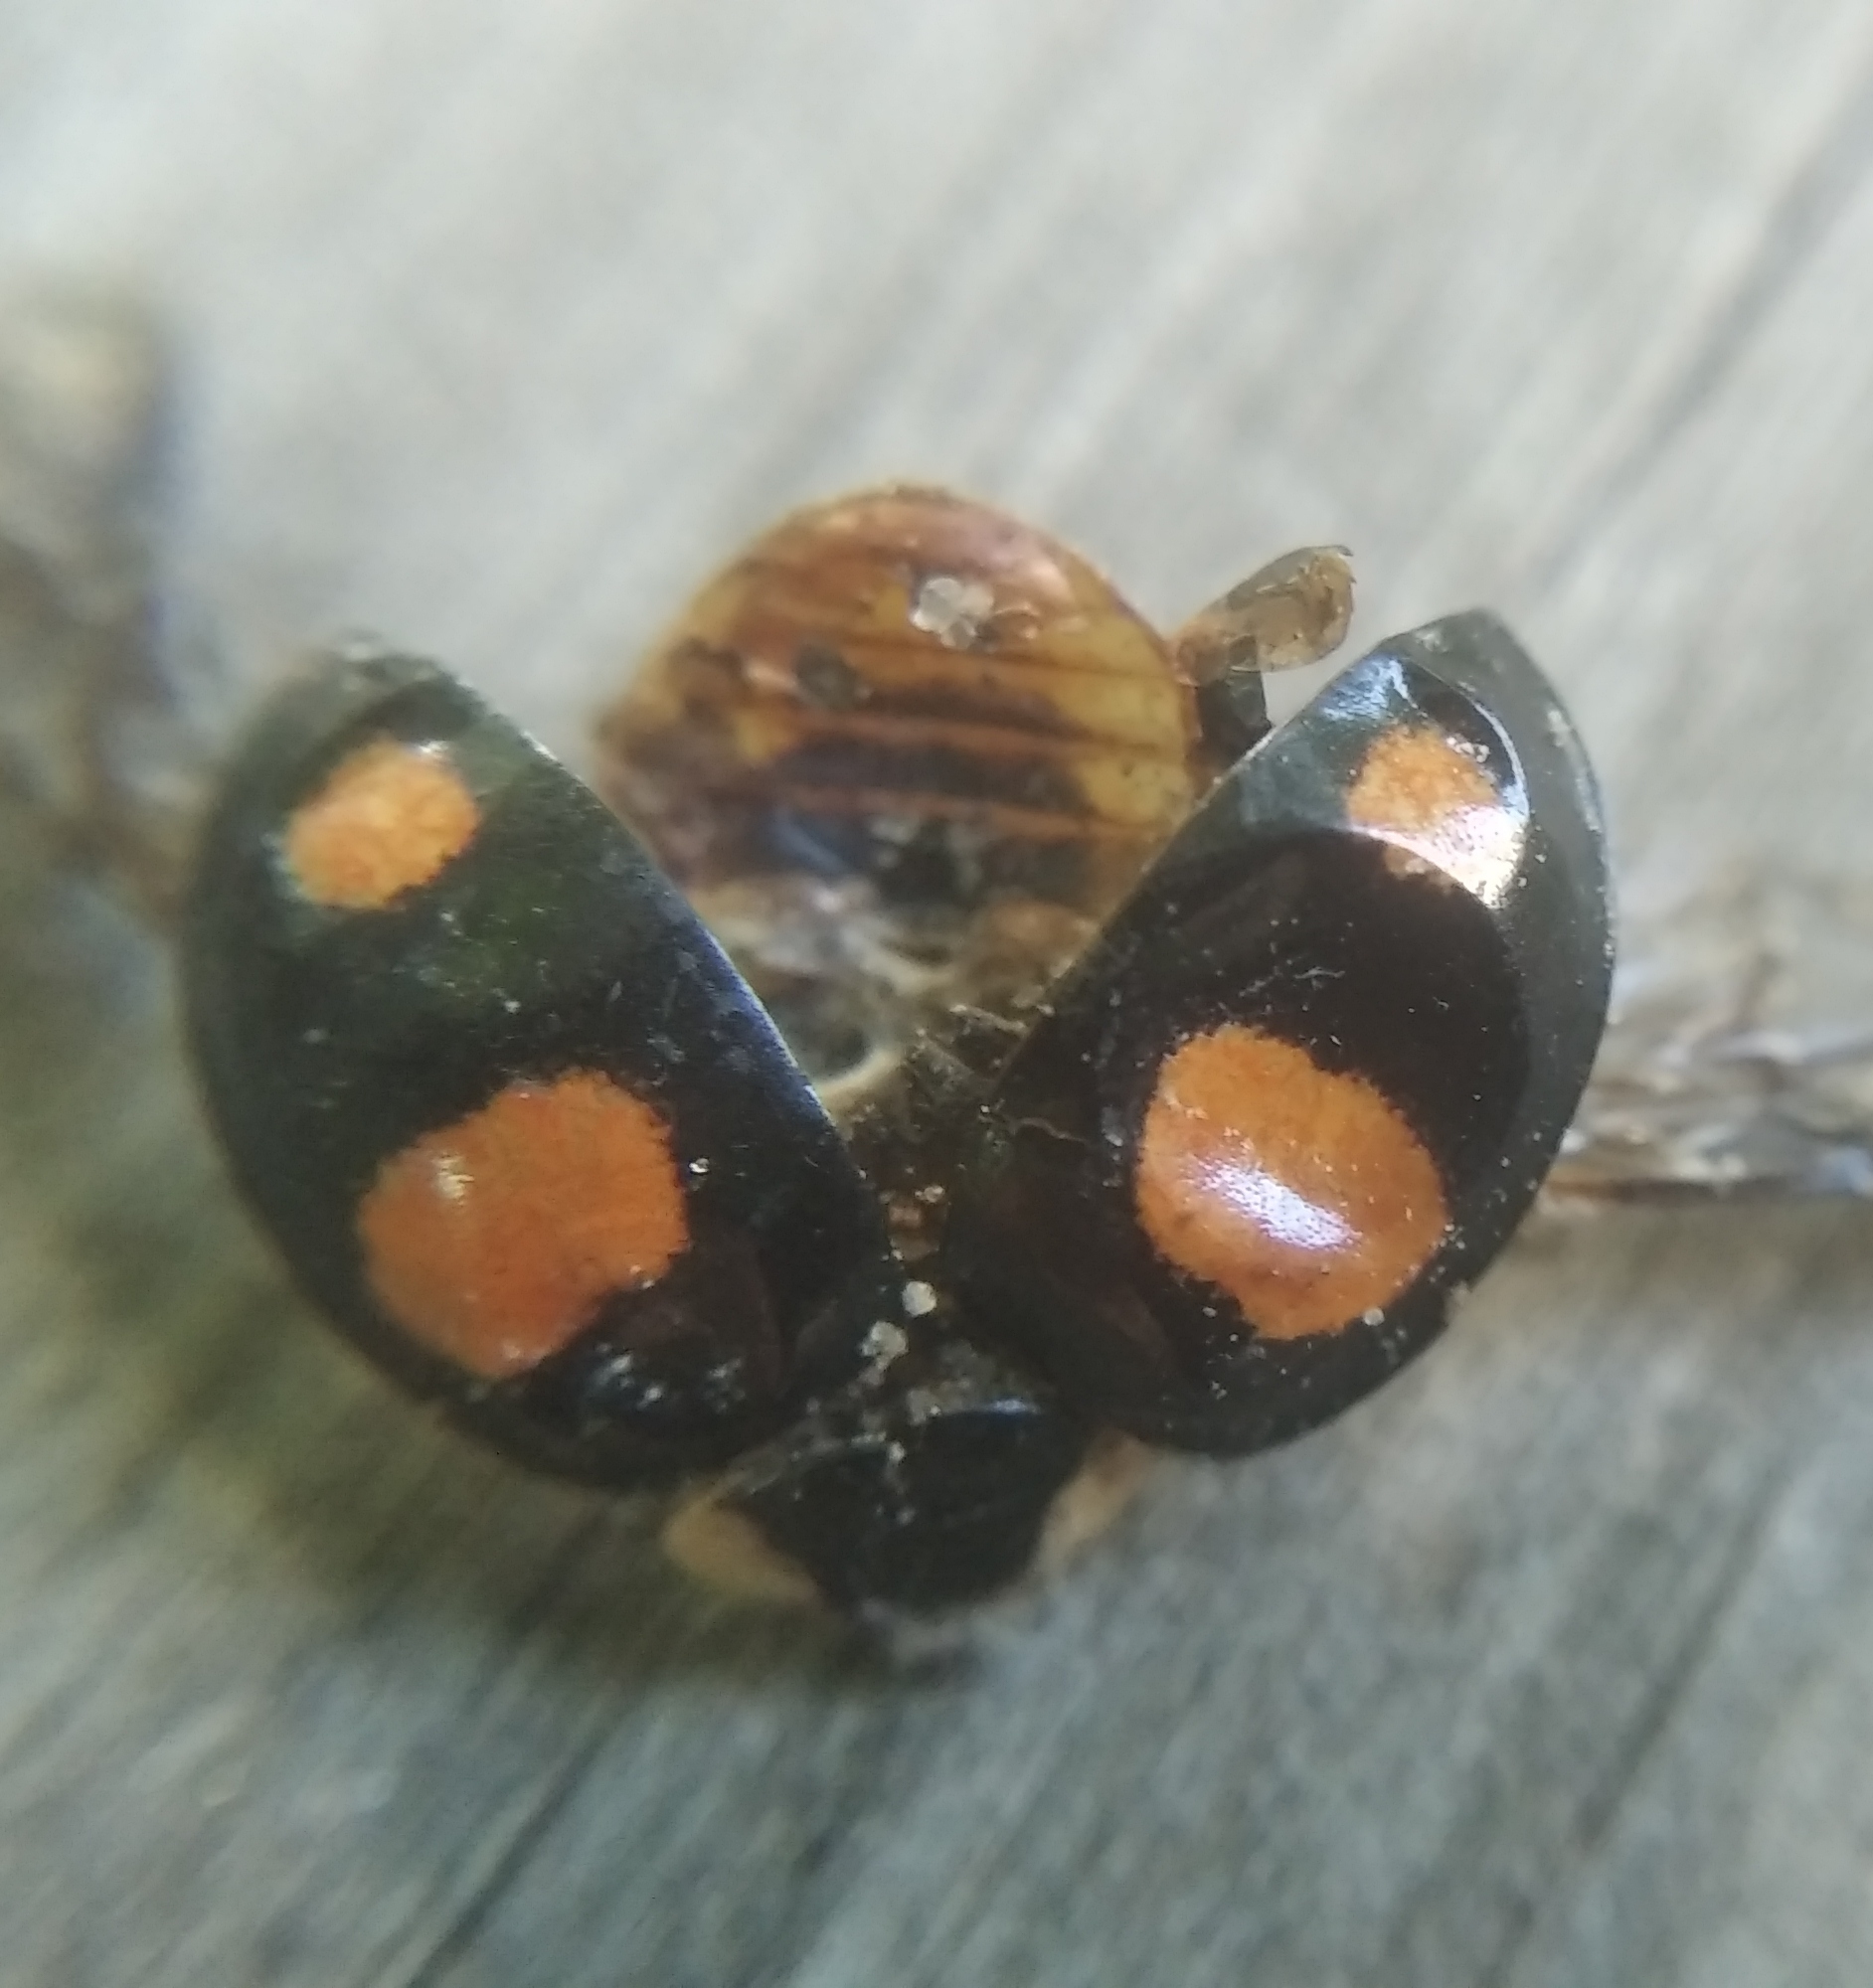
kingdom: Animalia
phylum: Arthropoda
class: Insecta
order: Coleoptera
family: Coccinellidae
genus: Harmonia
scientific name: Harmonia axyridis
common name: Harlequin ladybird
